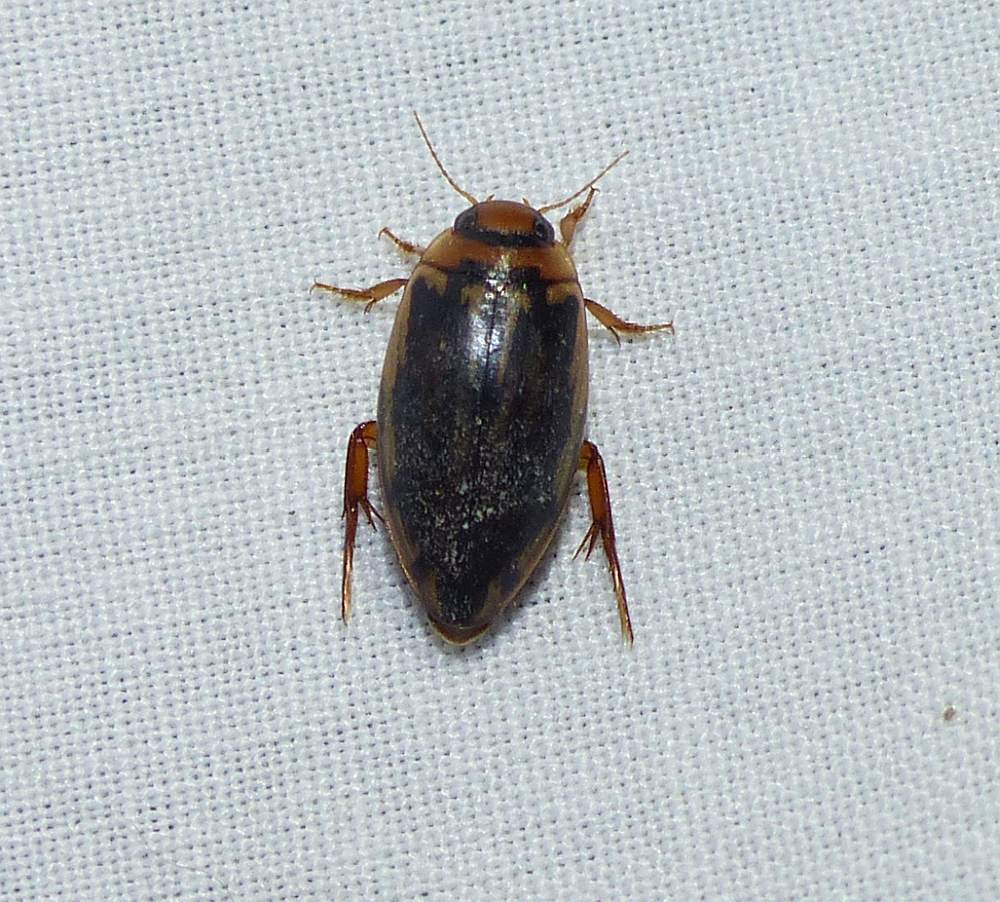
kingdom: Animalia
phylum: Arthropoda
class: Insecta
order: Coleoptera
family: Dytiscidae
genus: Coptotomus
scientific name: Coptotomus longulus
